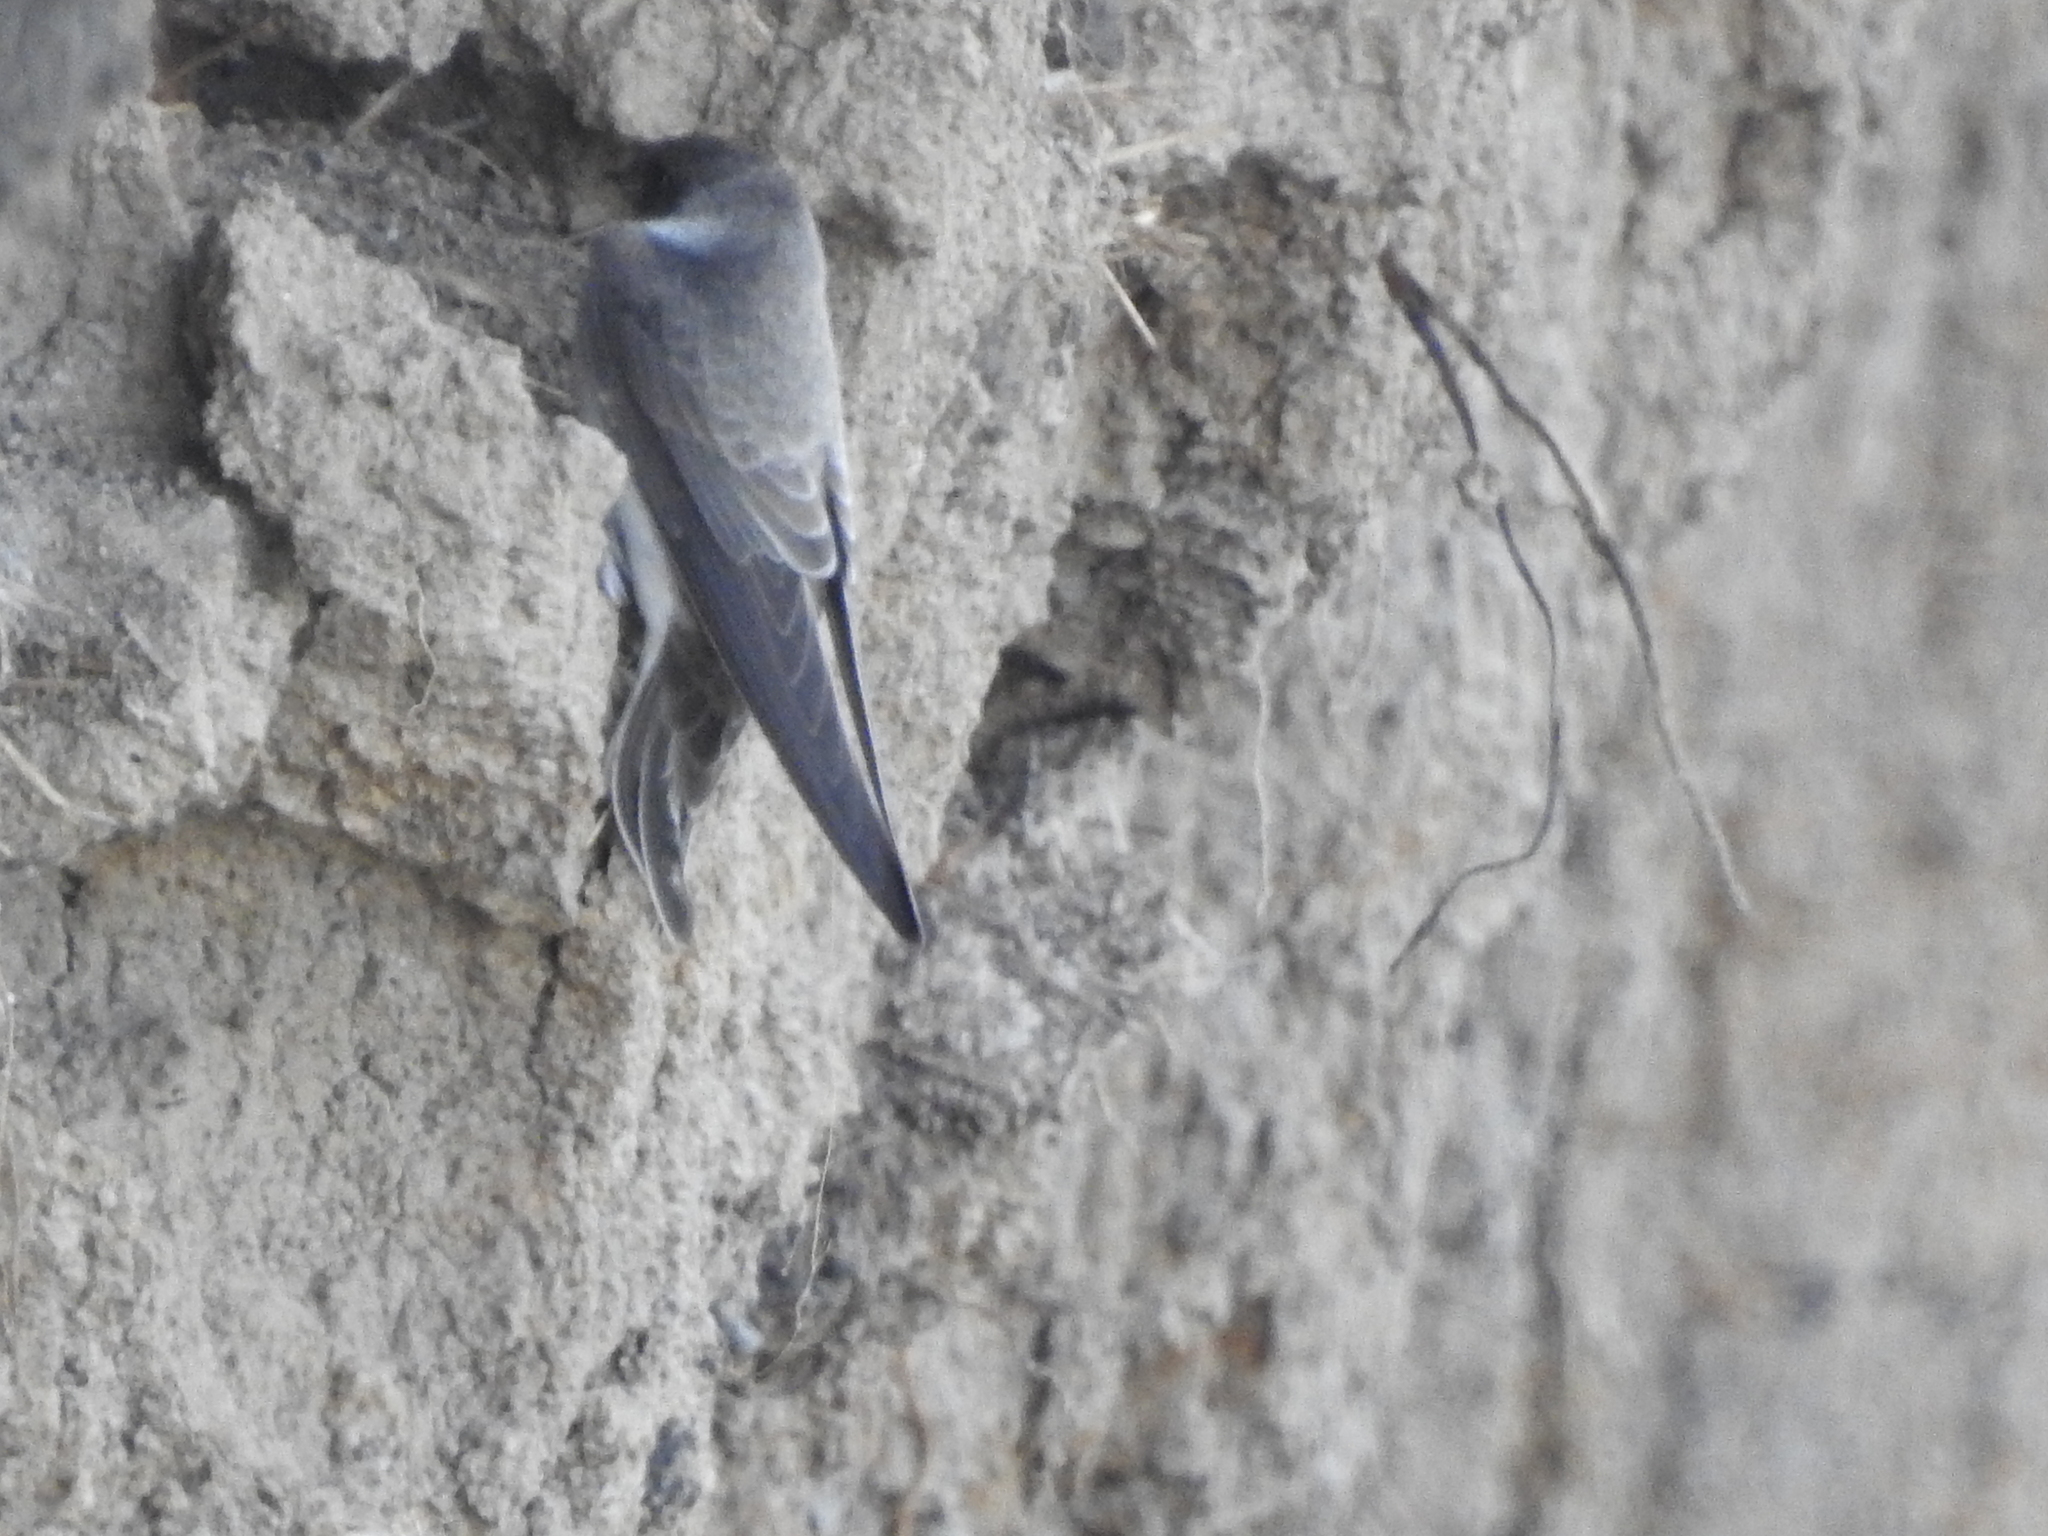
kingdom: Animalia
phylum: Chordata
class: Aves
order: Passeriformes
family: Hirundinidae
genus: Riparia
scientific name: Riparia riparia
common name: Sand martin
